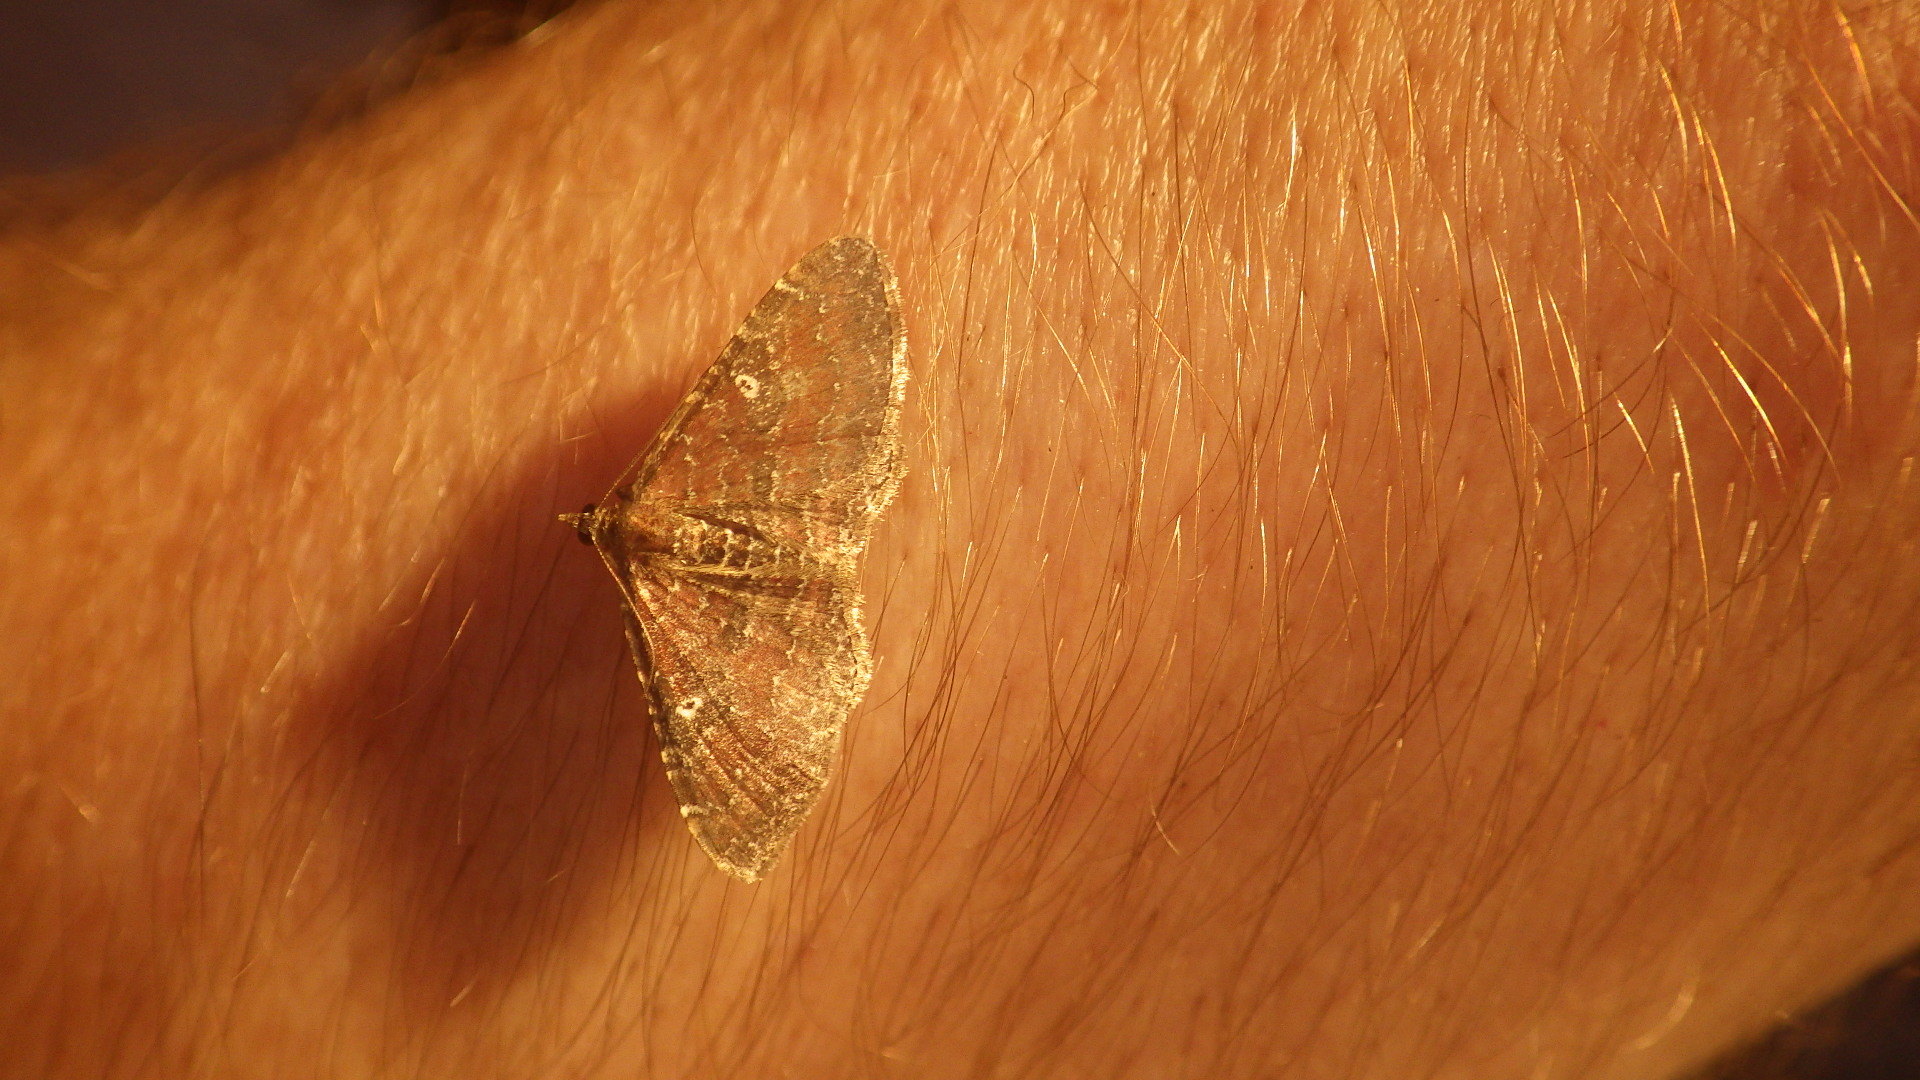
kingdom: Animalia
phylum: Arthropoda
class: Insecta
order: Lepidoptera
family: Geometridae
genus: Orthonama
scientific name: Orthonama obstipata
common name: The gem
